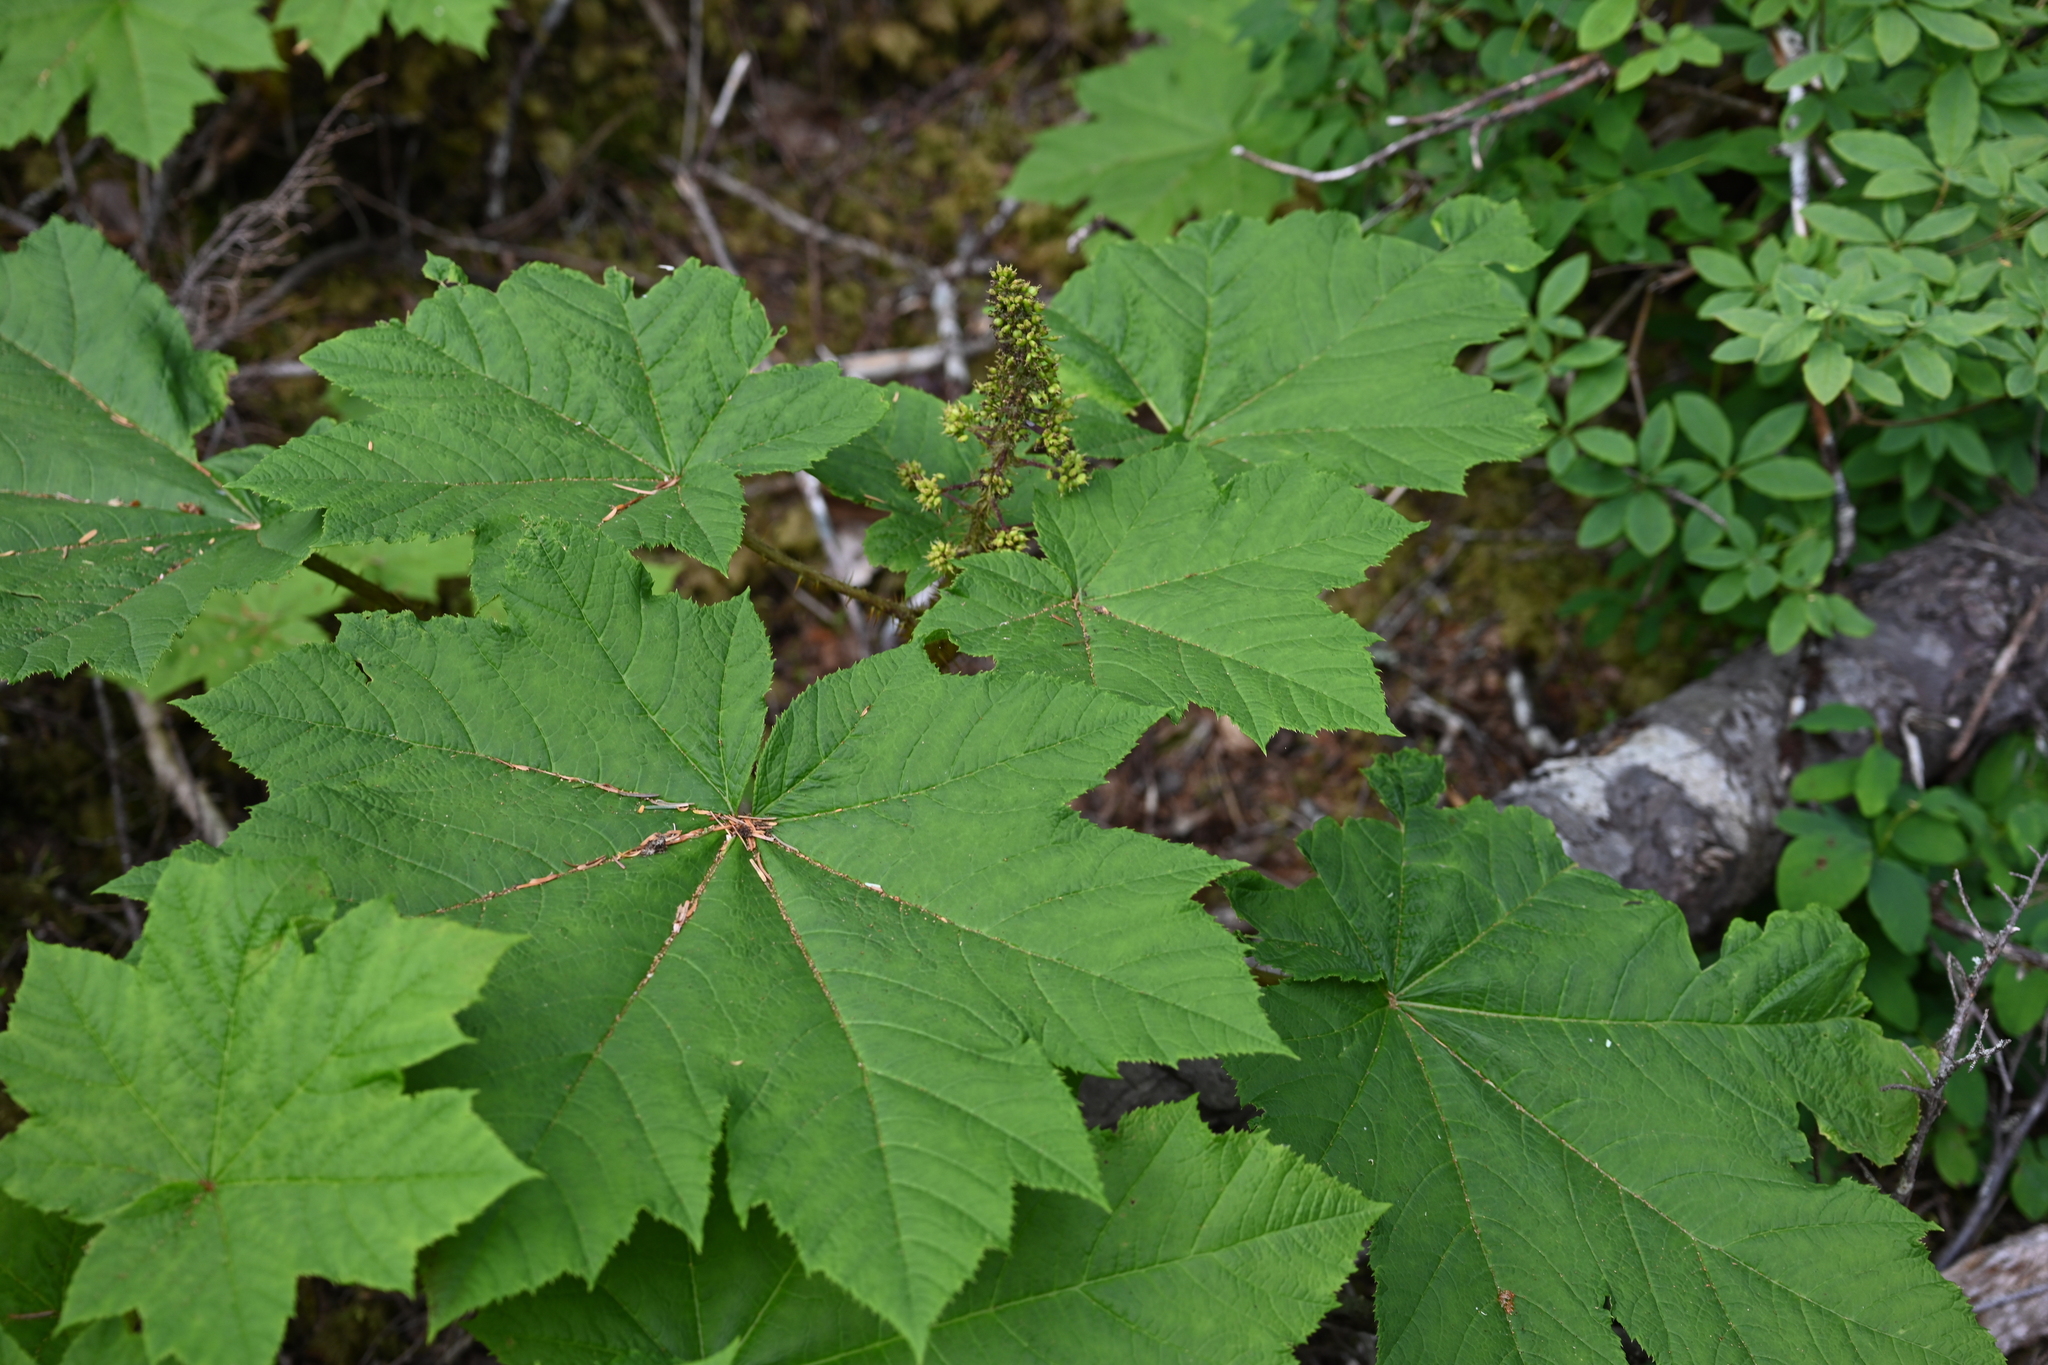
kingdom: Plantae
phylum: Tracheophyta
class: Magnoliopsida
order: Apiales
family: Araliaceae
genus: Oplopanax
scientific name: Oplopanax horridus
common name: Devil's walking-stick
